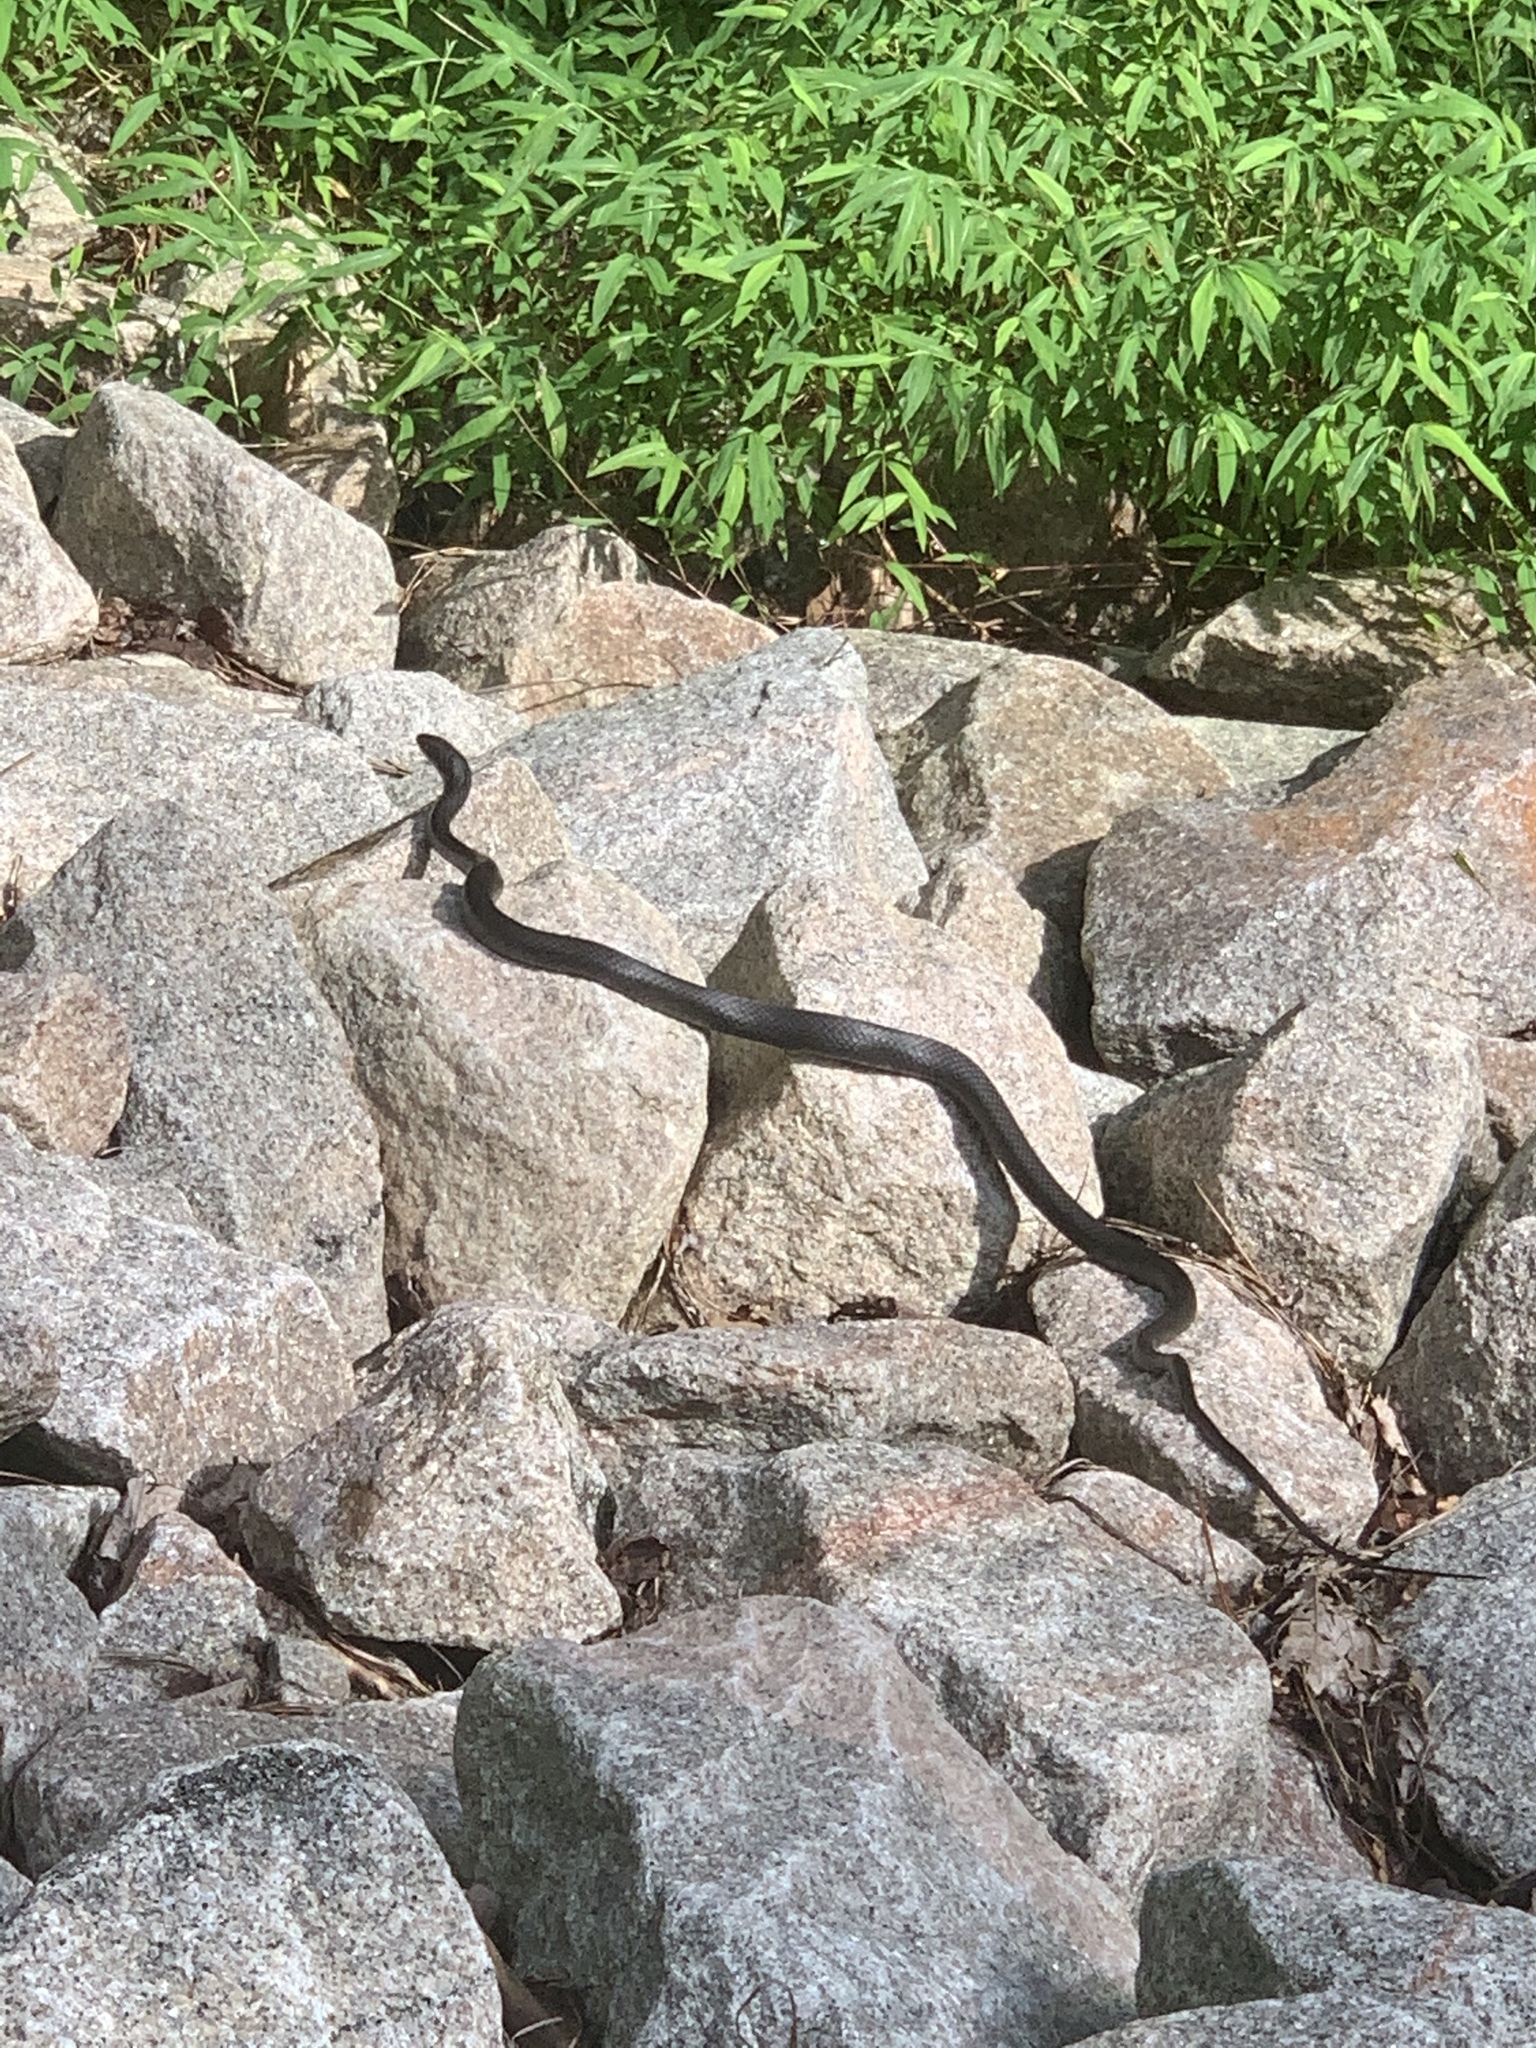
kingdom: Animalia
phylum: Chordata
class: Squamata
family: Colubridae
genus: Coluber
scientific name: Coluber constrictor
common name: Eastern racer
